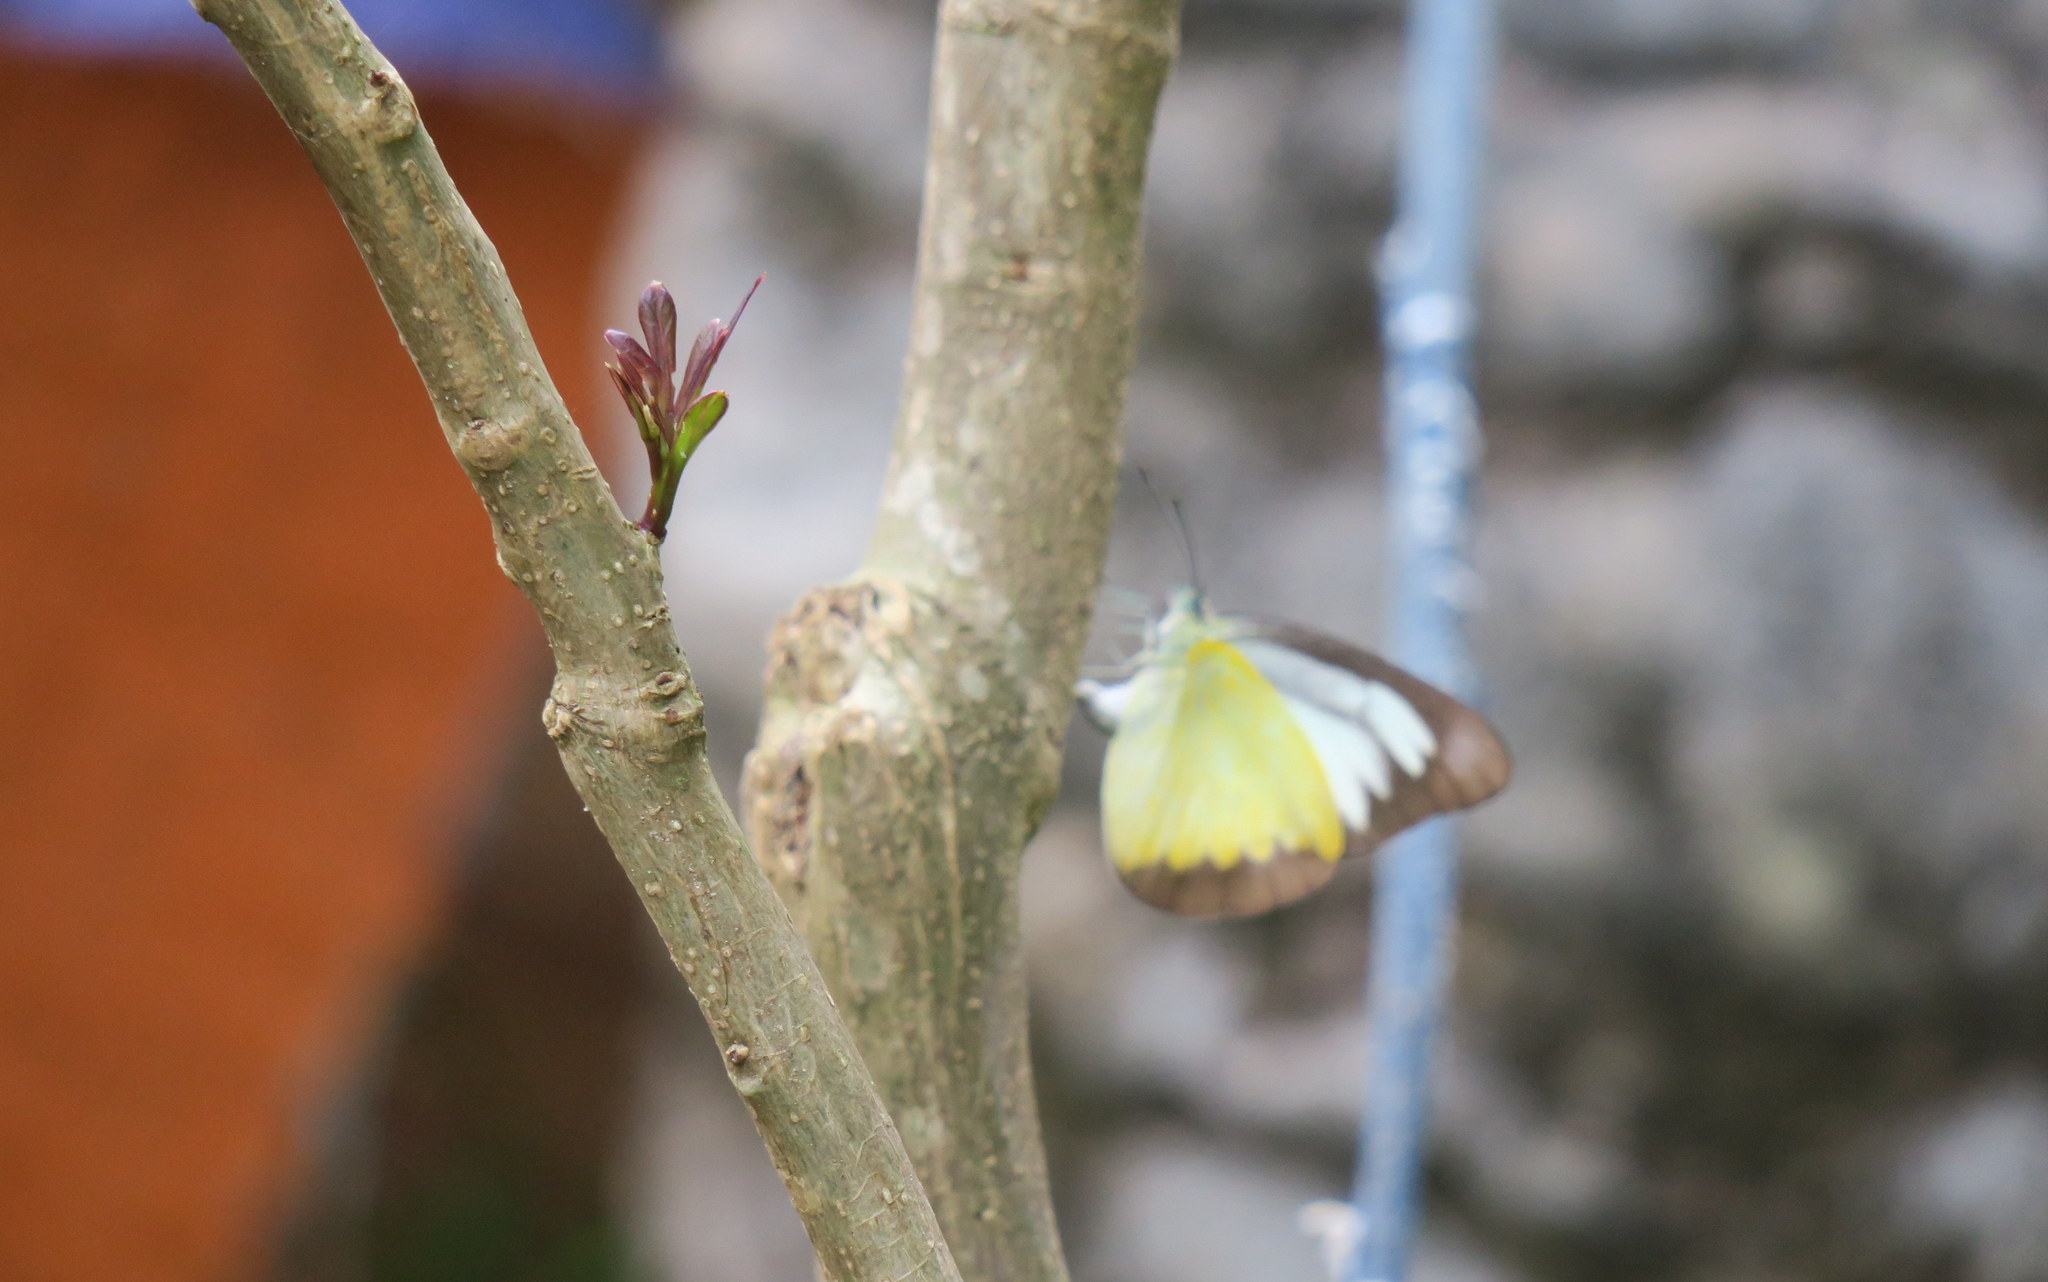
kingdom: Animalia
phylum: Arthropoda
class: Insecta
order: Lepidoptera
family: Pieridae
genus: Appias
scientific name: Appias lyncida
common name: Chocolate albatross
